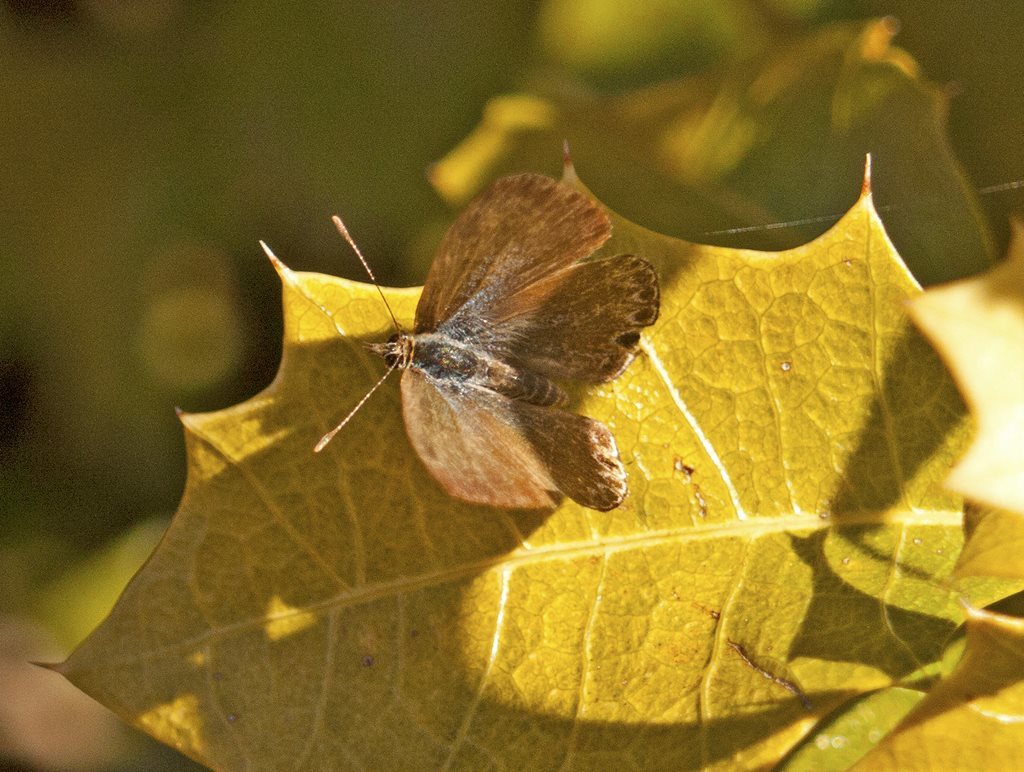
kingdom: Animalia
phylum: Arthropoda
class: Insecta
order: Lepidoptera
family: Lycaenidae
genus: Catopyrops
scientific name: Catopyrops florinda
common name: Speckled line-blue
